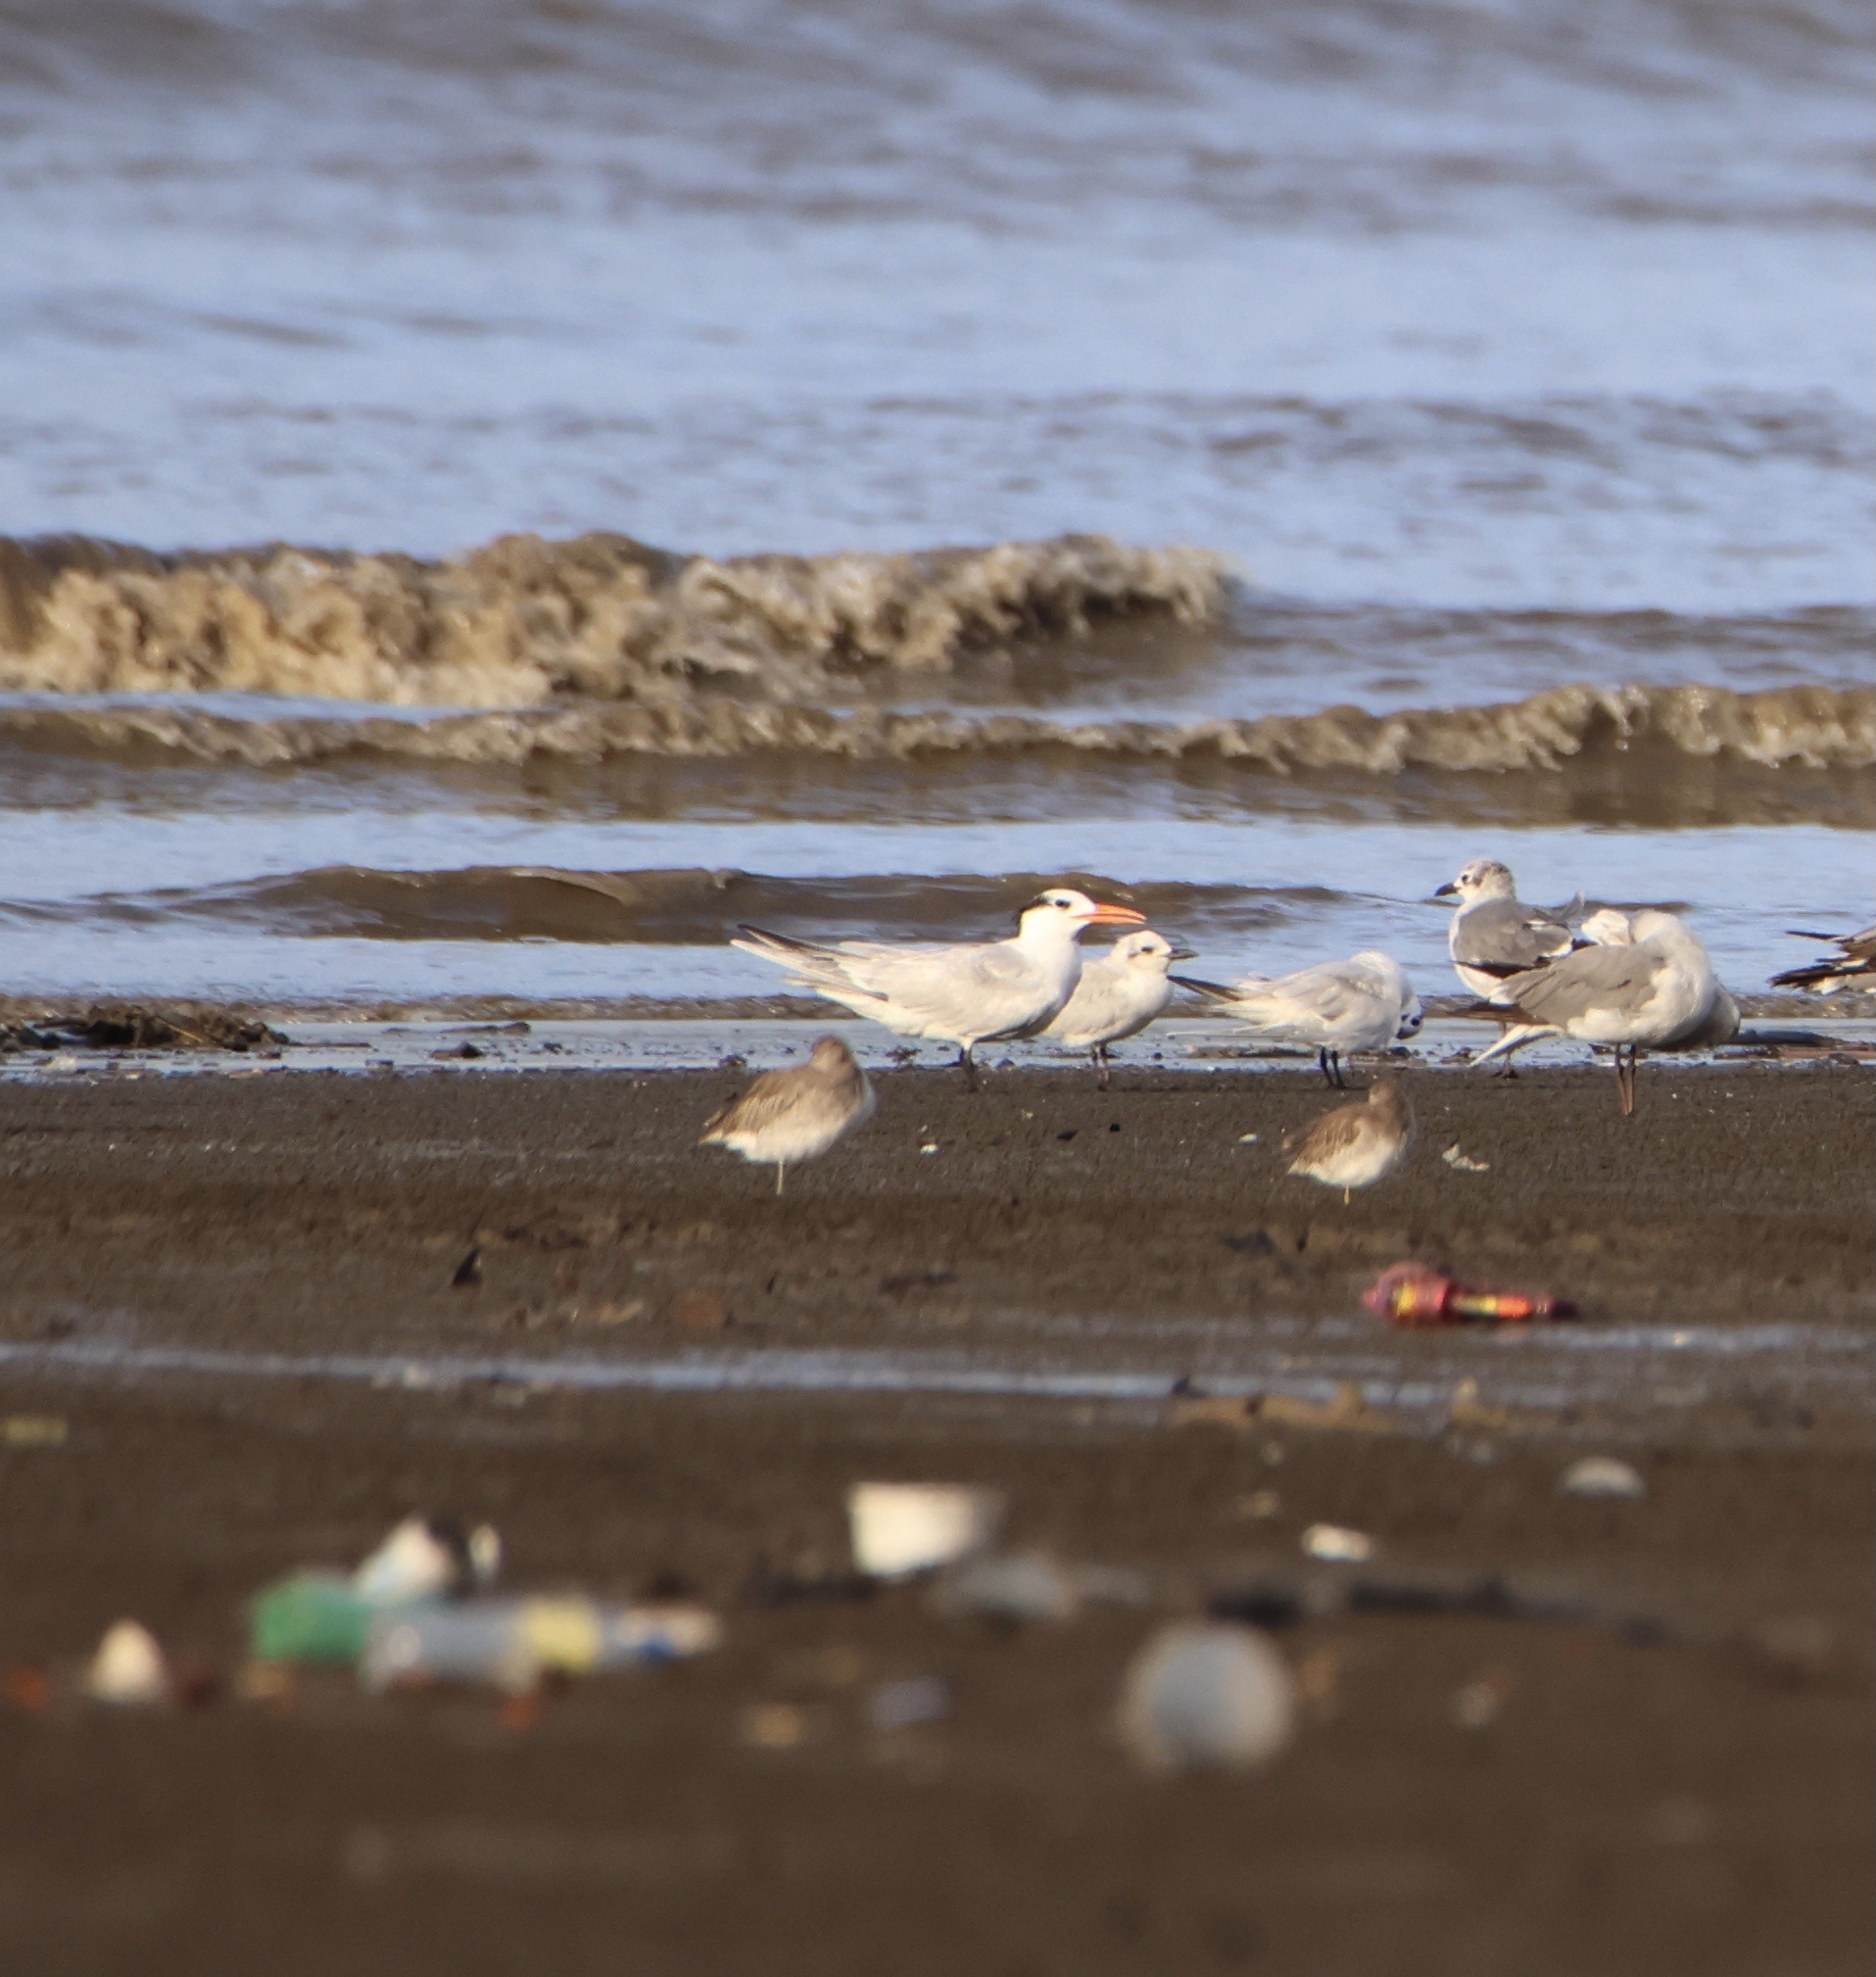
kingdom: Animalia
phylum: Chordata
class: Aves
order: Charadriiformes
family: Laridae
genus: Thalasseus
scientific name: Thalasseus maximus
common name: Royal tern
